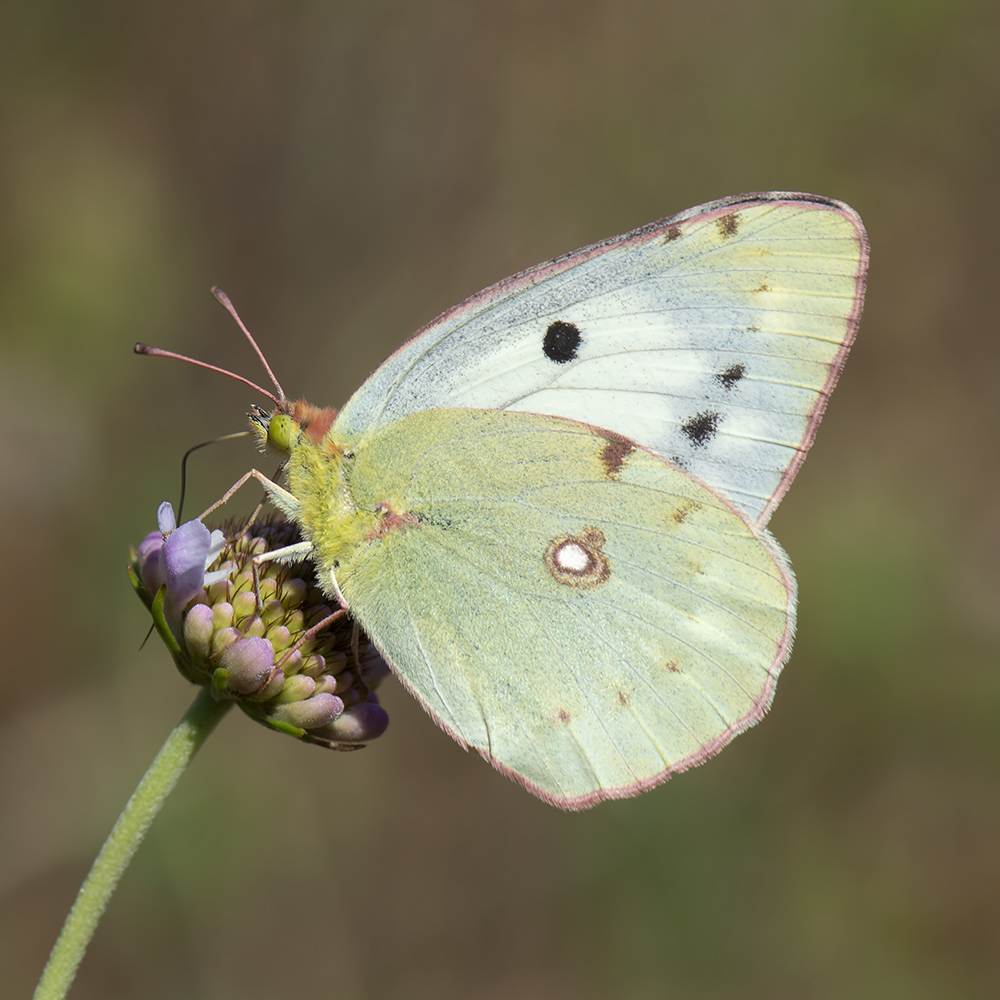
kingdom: Animalia
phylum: Arthropoda
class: Insecta
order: Lepidoptera
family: Pieridae
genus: Colias
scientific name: Colias croceus
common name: Clouded yellow
